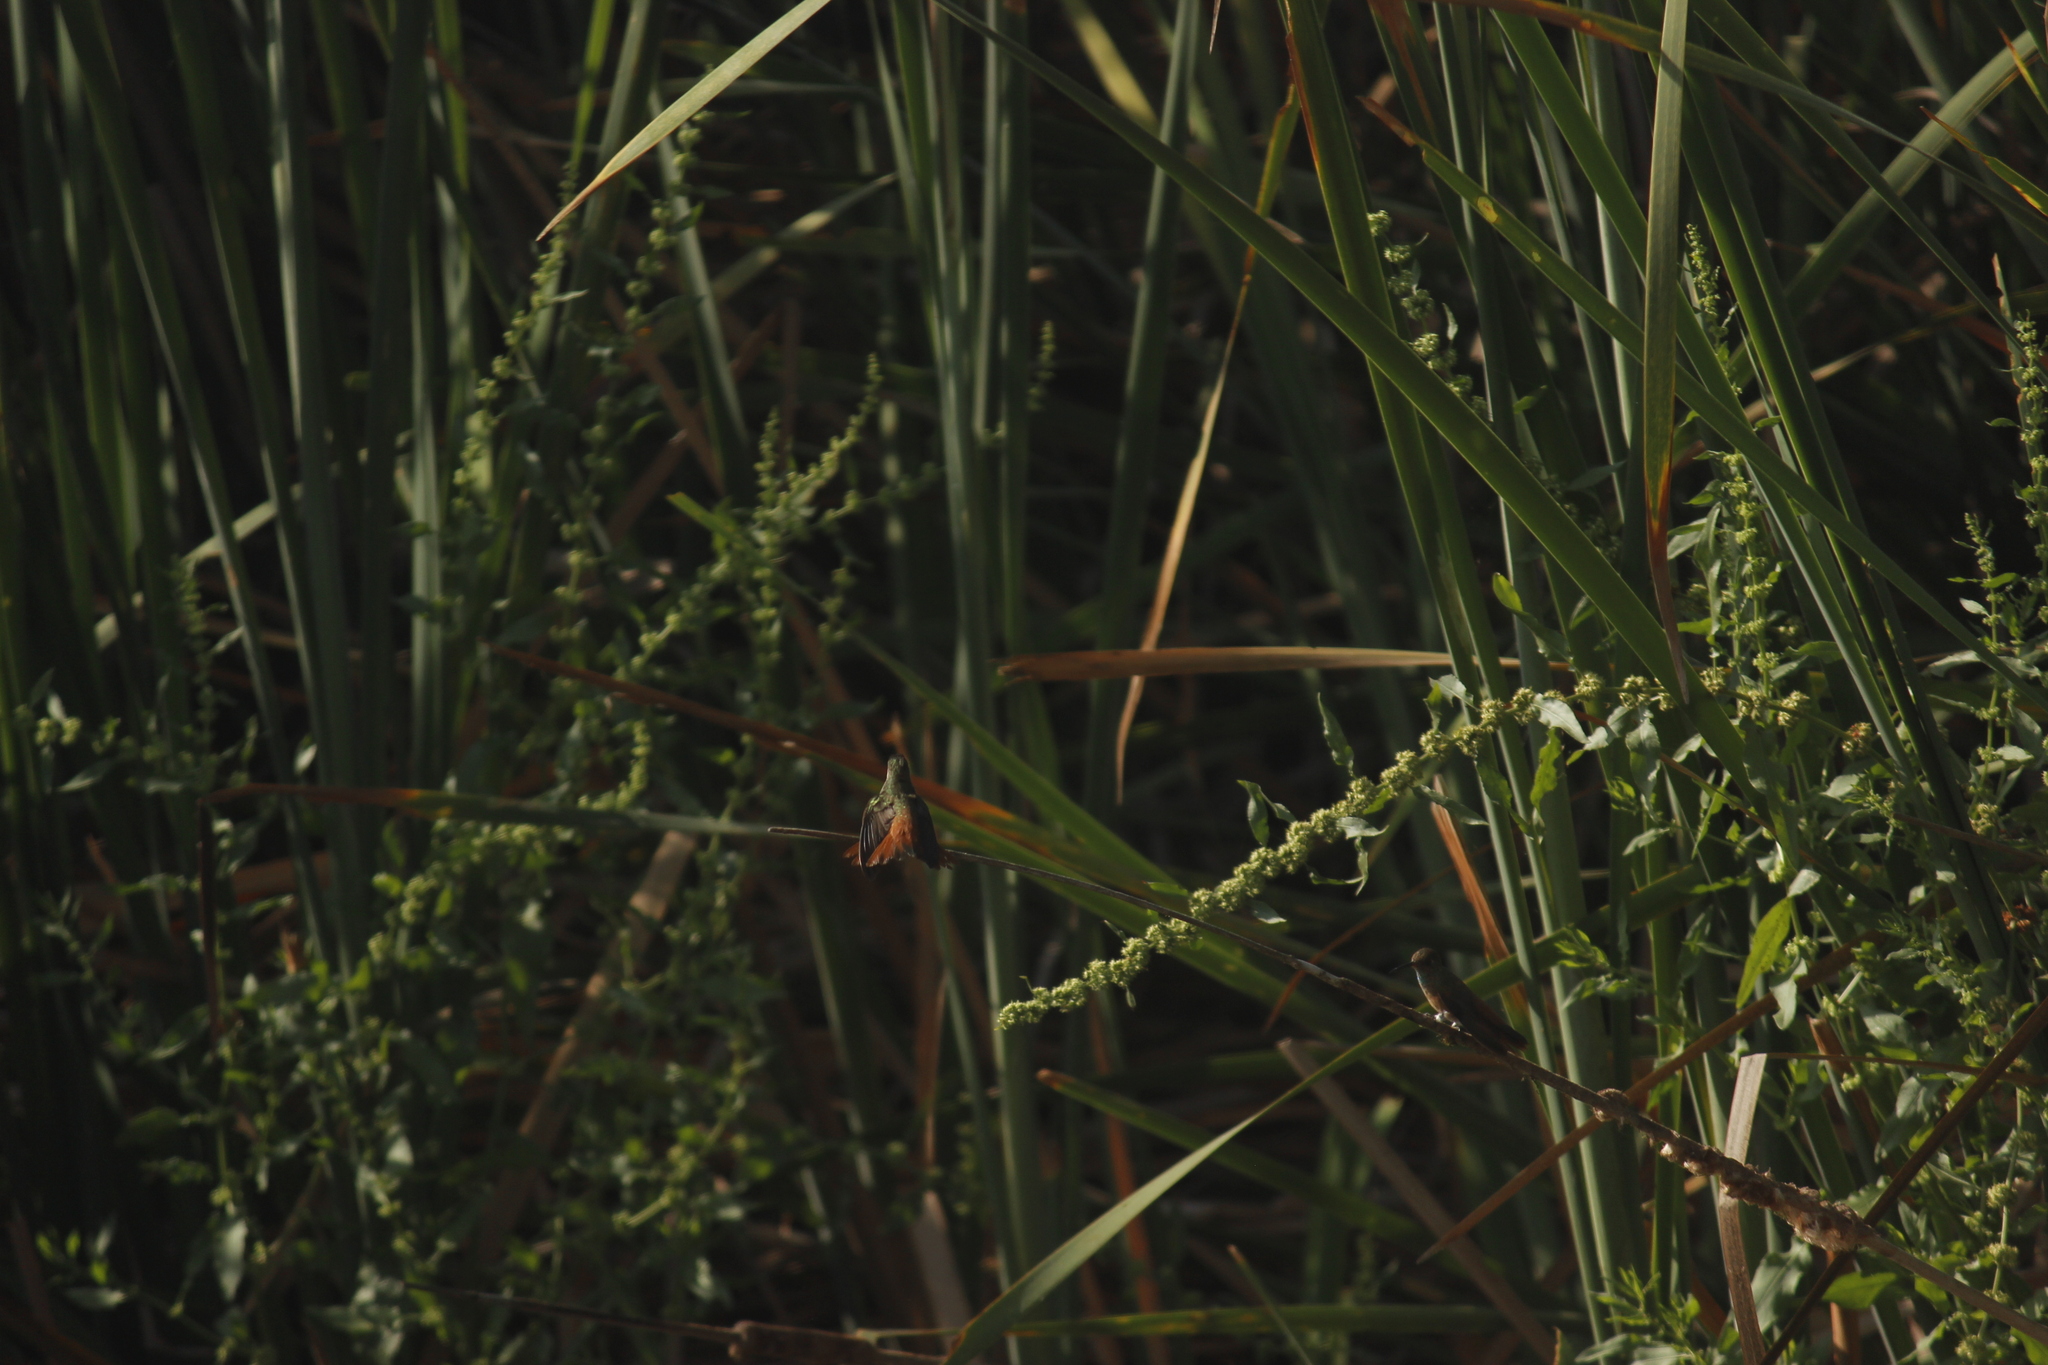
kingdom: Animalia
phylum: Chordata
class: Aves
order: Apodiformes
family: Trochilidae
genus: Amazilis
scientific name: Amazilis amazilia
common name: Amazilia hummingbird
